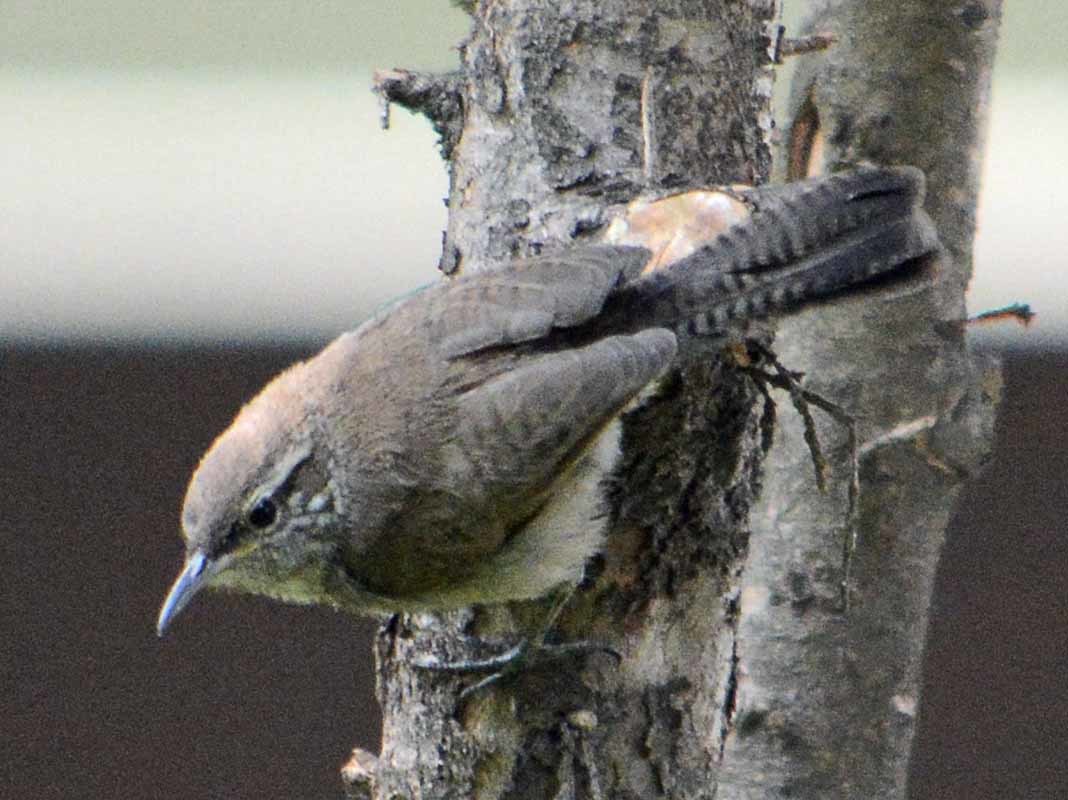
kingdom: Animalia
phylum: Chordata
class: Aves
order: Passeriformes
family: Troglodytidae
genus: Thryomanes
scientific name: Thryomanes bewickii
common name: Bewick's wren
